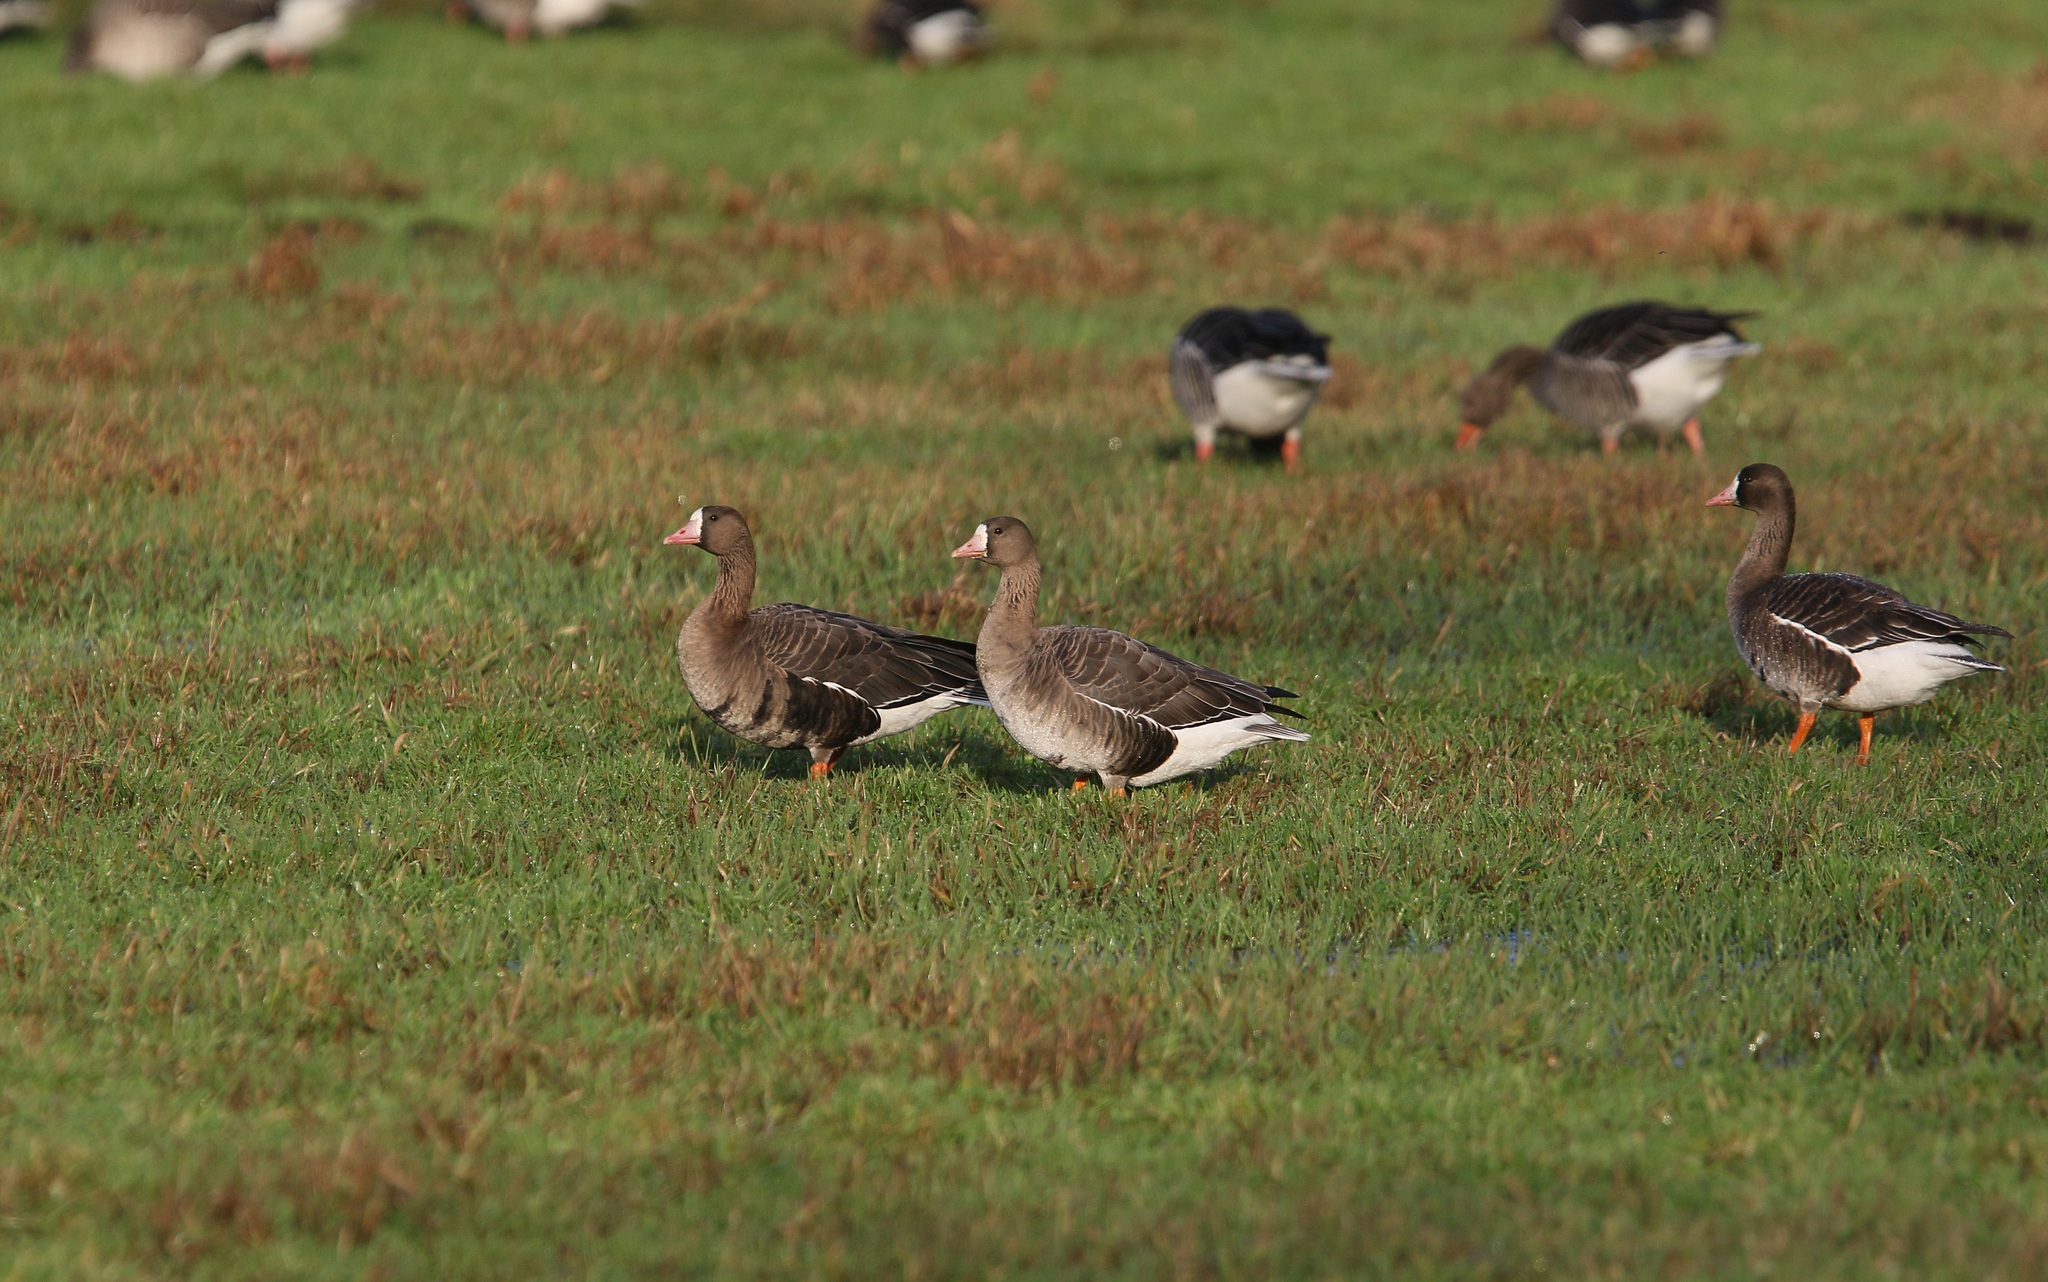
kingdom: Animalia
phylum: Chordata
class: Aves
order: Anseriformes
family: Anatidae
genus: Anser
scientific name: Anser albifrons
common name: Greater white-fronted goose
